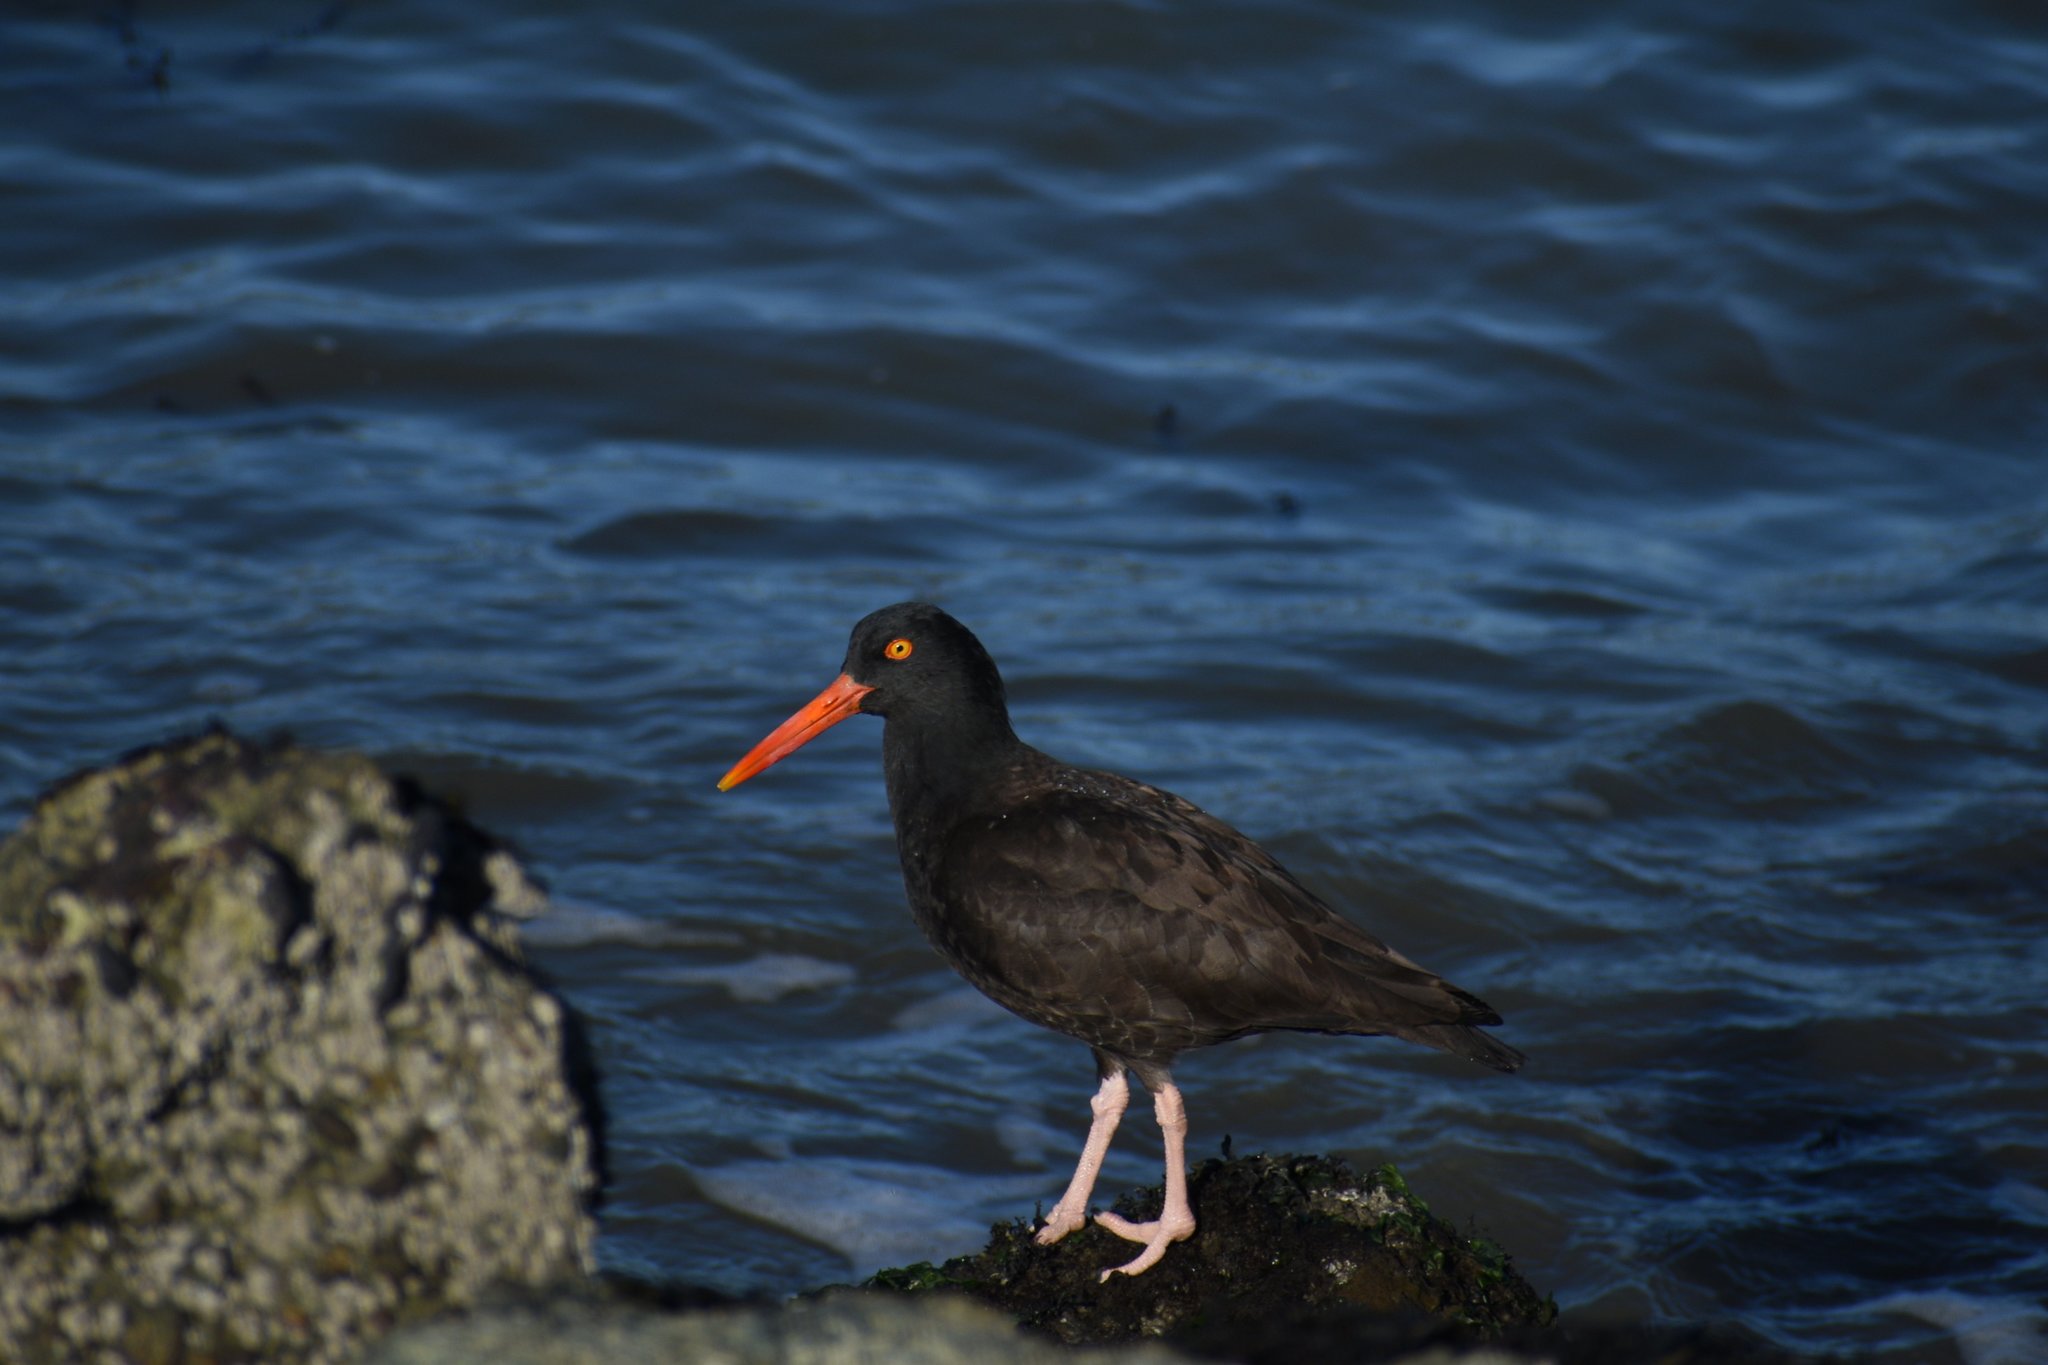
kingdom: Animalia
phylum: Chordata
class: Aves
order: Charadriiformes
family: Haematopodidae
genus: Haematopus
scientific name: Haematopus bachmani
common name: Black oystercatcher
